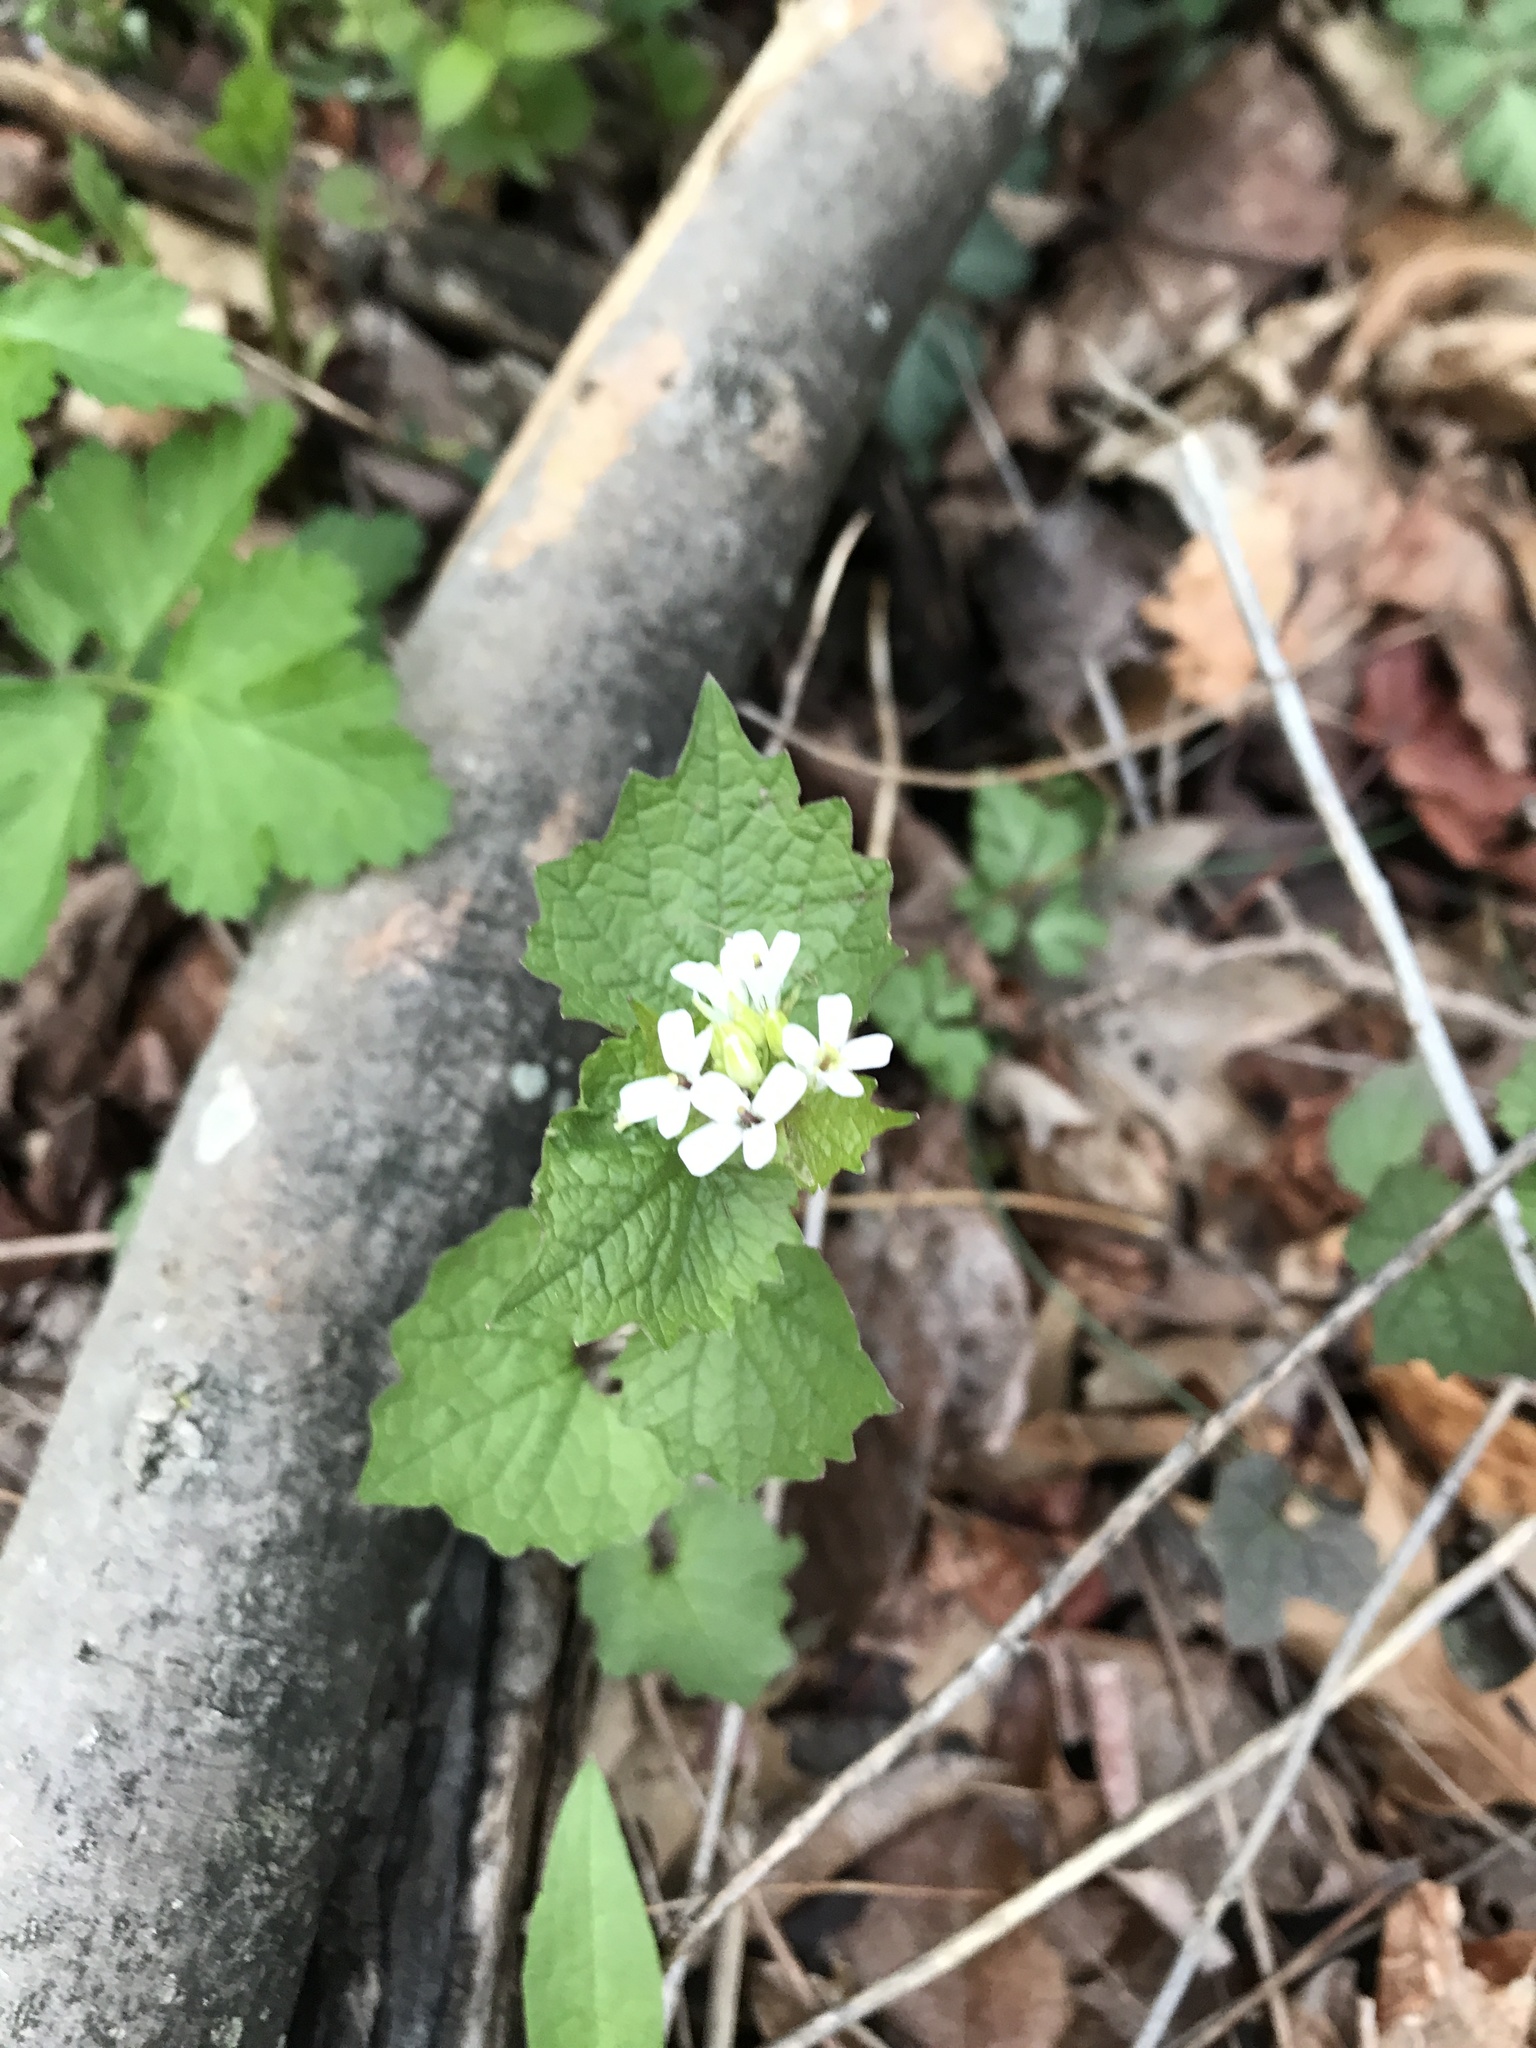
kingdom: Plantae
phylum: Tracheophyta
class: Magnoliopsida
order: Brassicales
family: Brassicaceae
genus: Alliaria
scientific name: Alliaria petiolata
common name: Garlic mustard
